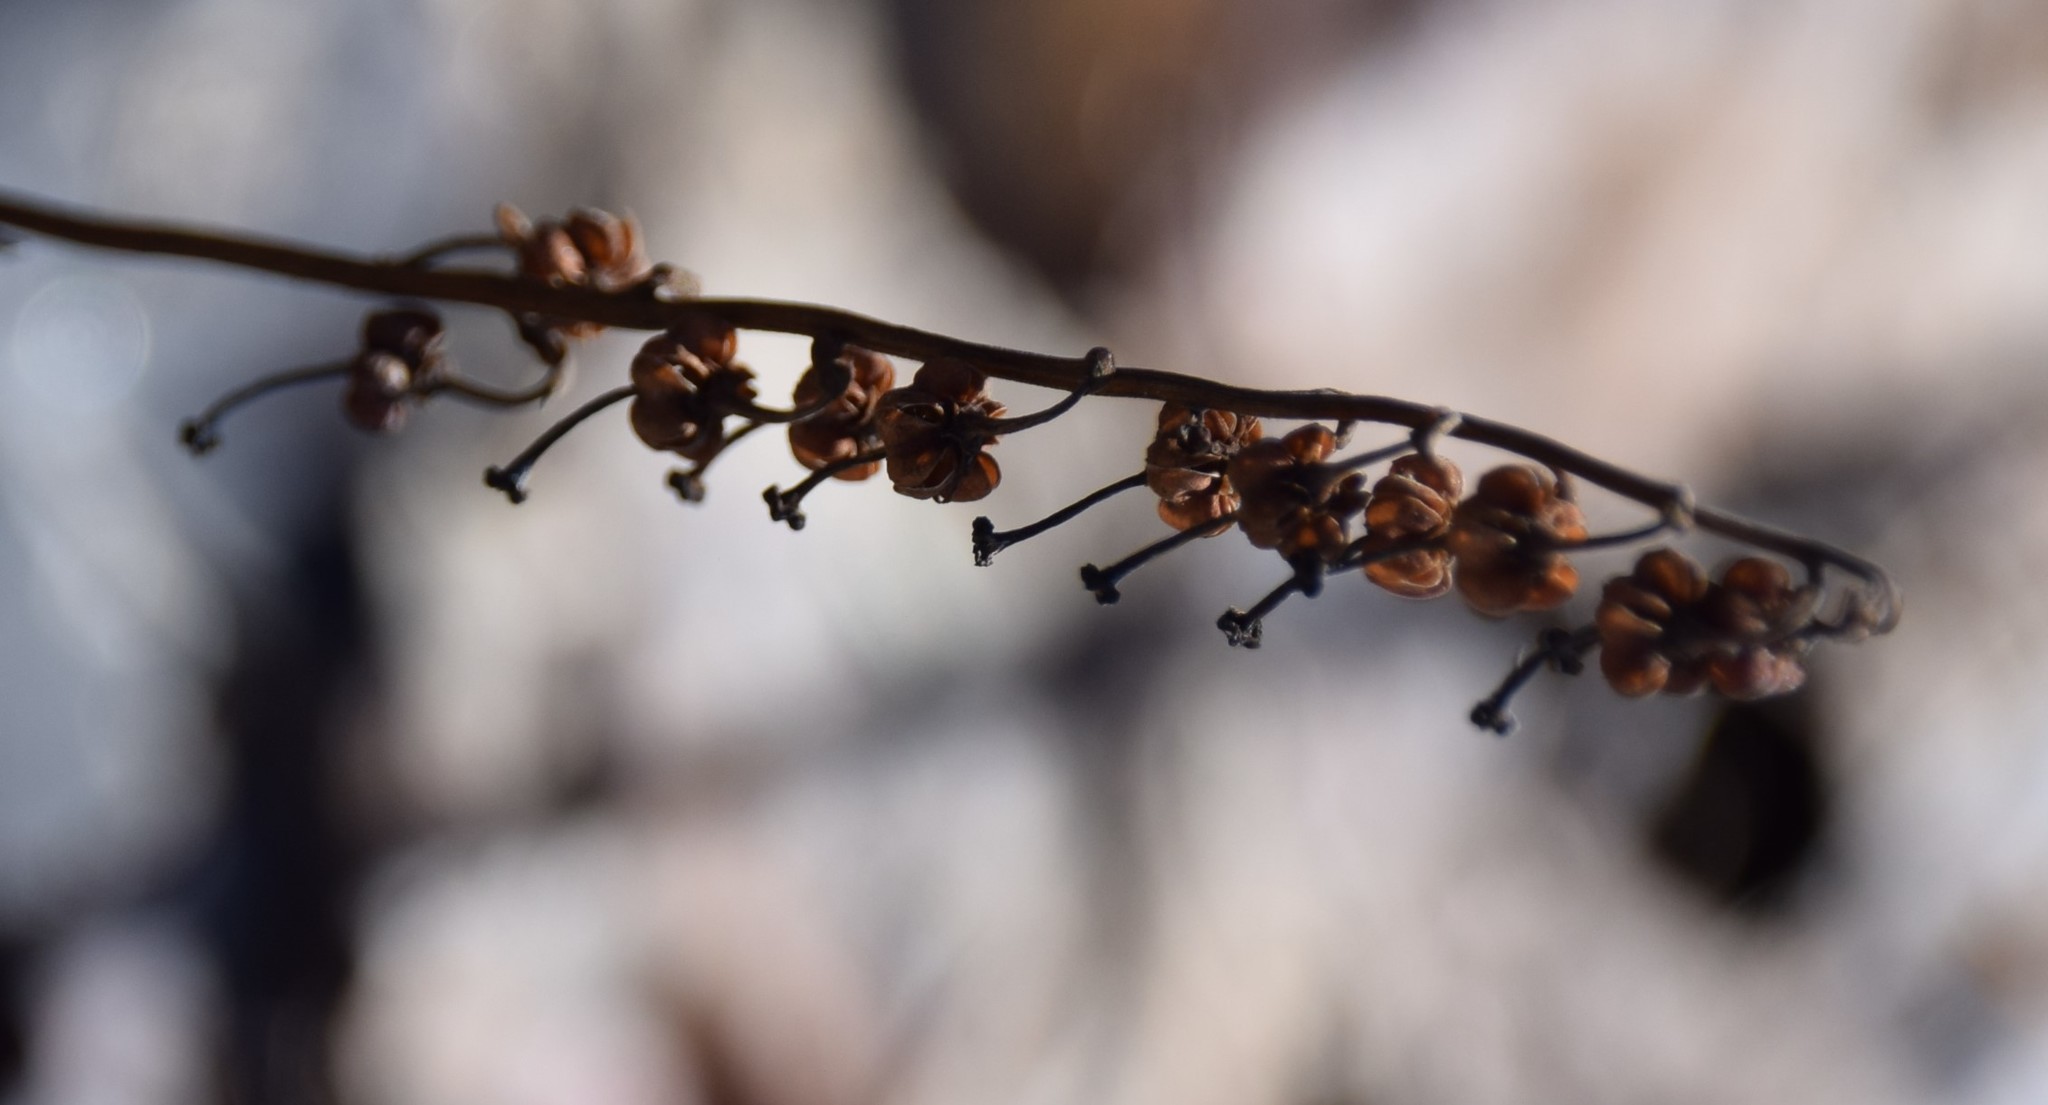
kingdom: Plantae
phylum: Tracheophyta
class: Magnoliopsida
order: Ericales
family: Ericaceae
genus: Orthilia
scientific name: Orthilia secunda
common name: One-sided orthilia
